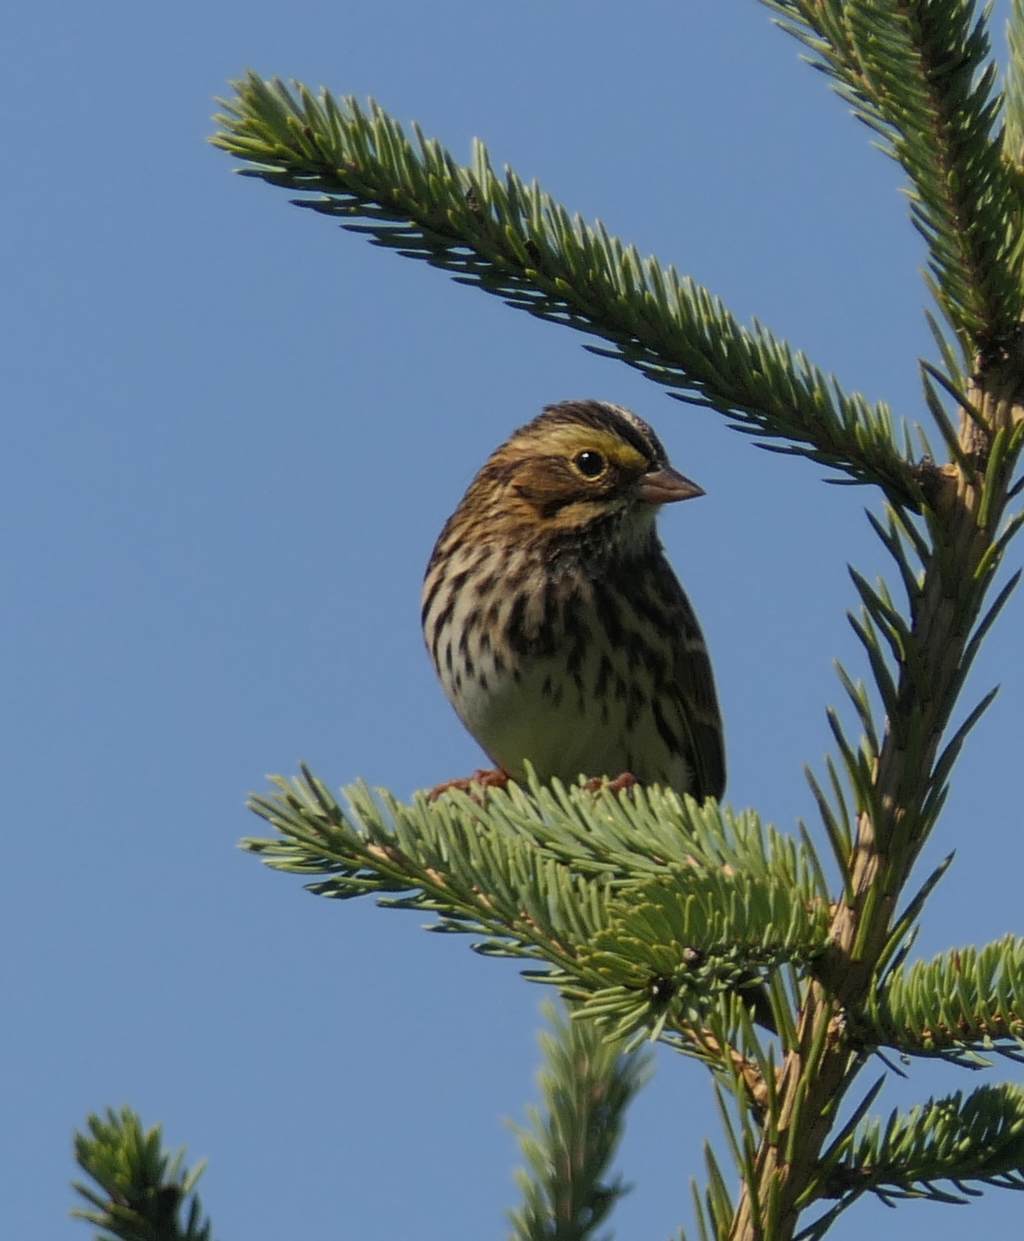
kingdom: Animalia
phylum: Chordata
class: Aves
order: Passeriformes
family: Passerellidae
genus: Passerculus
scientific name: Passerculus sandwichensis
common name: Savannah sparrow
